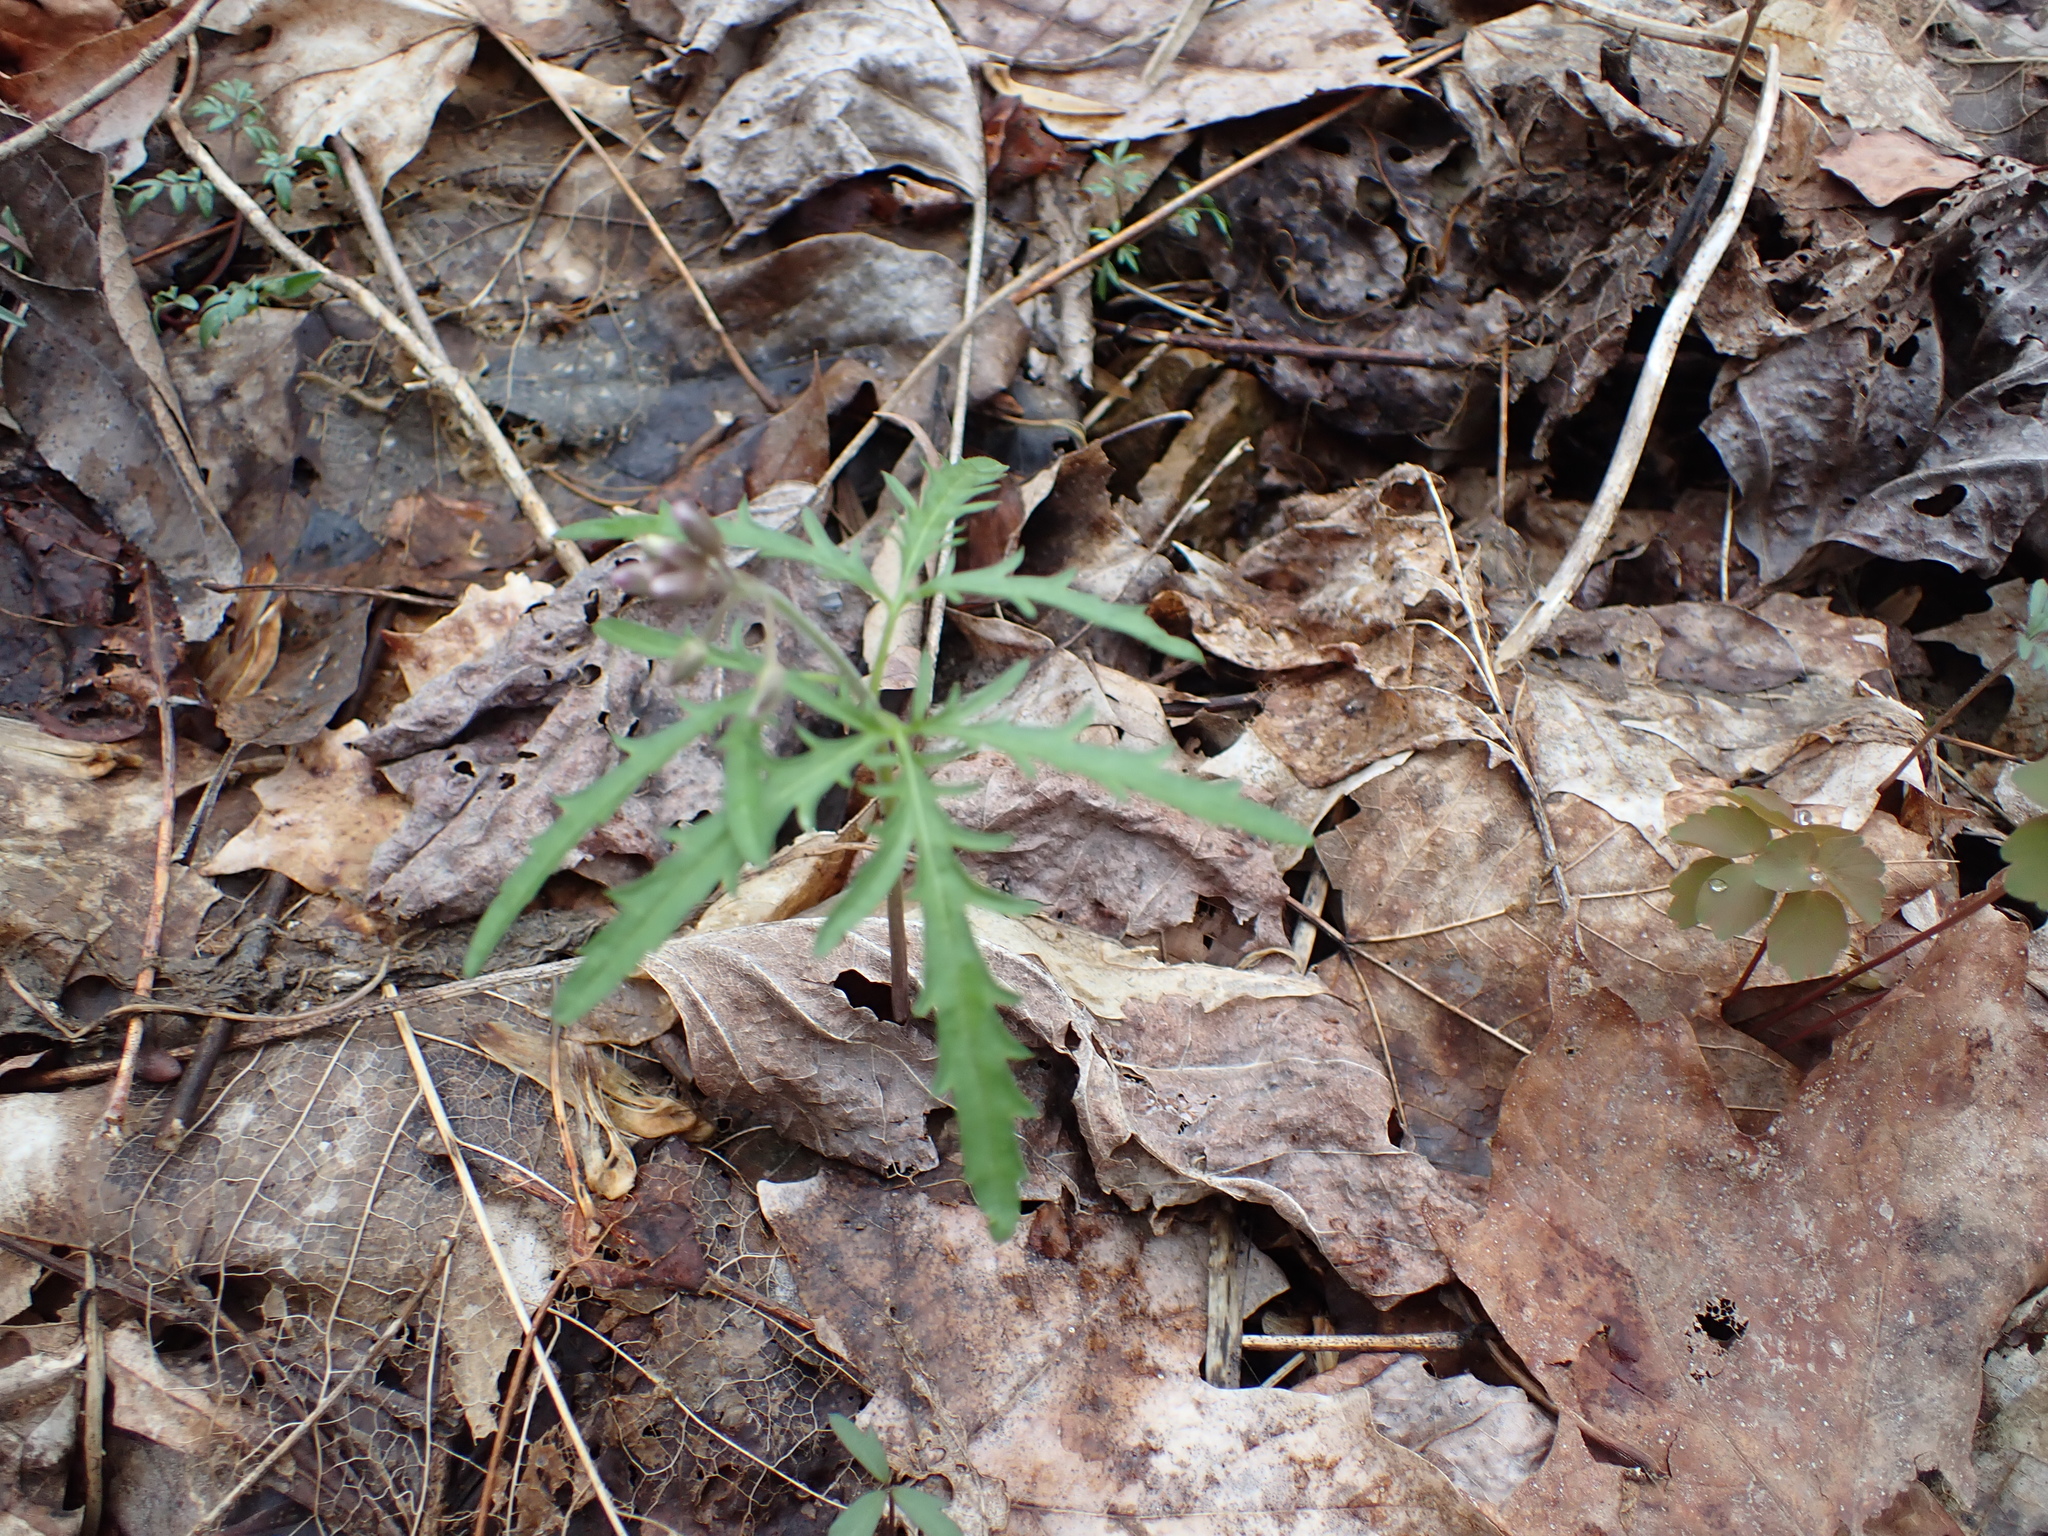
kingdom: Plantae
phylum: Tracheophyta
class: Magnoliopsida
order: Brassicales
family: Brassicaceae
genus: Cardamine
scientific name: Cardamine concatenata
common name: Cut-leaf toothcup
